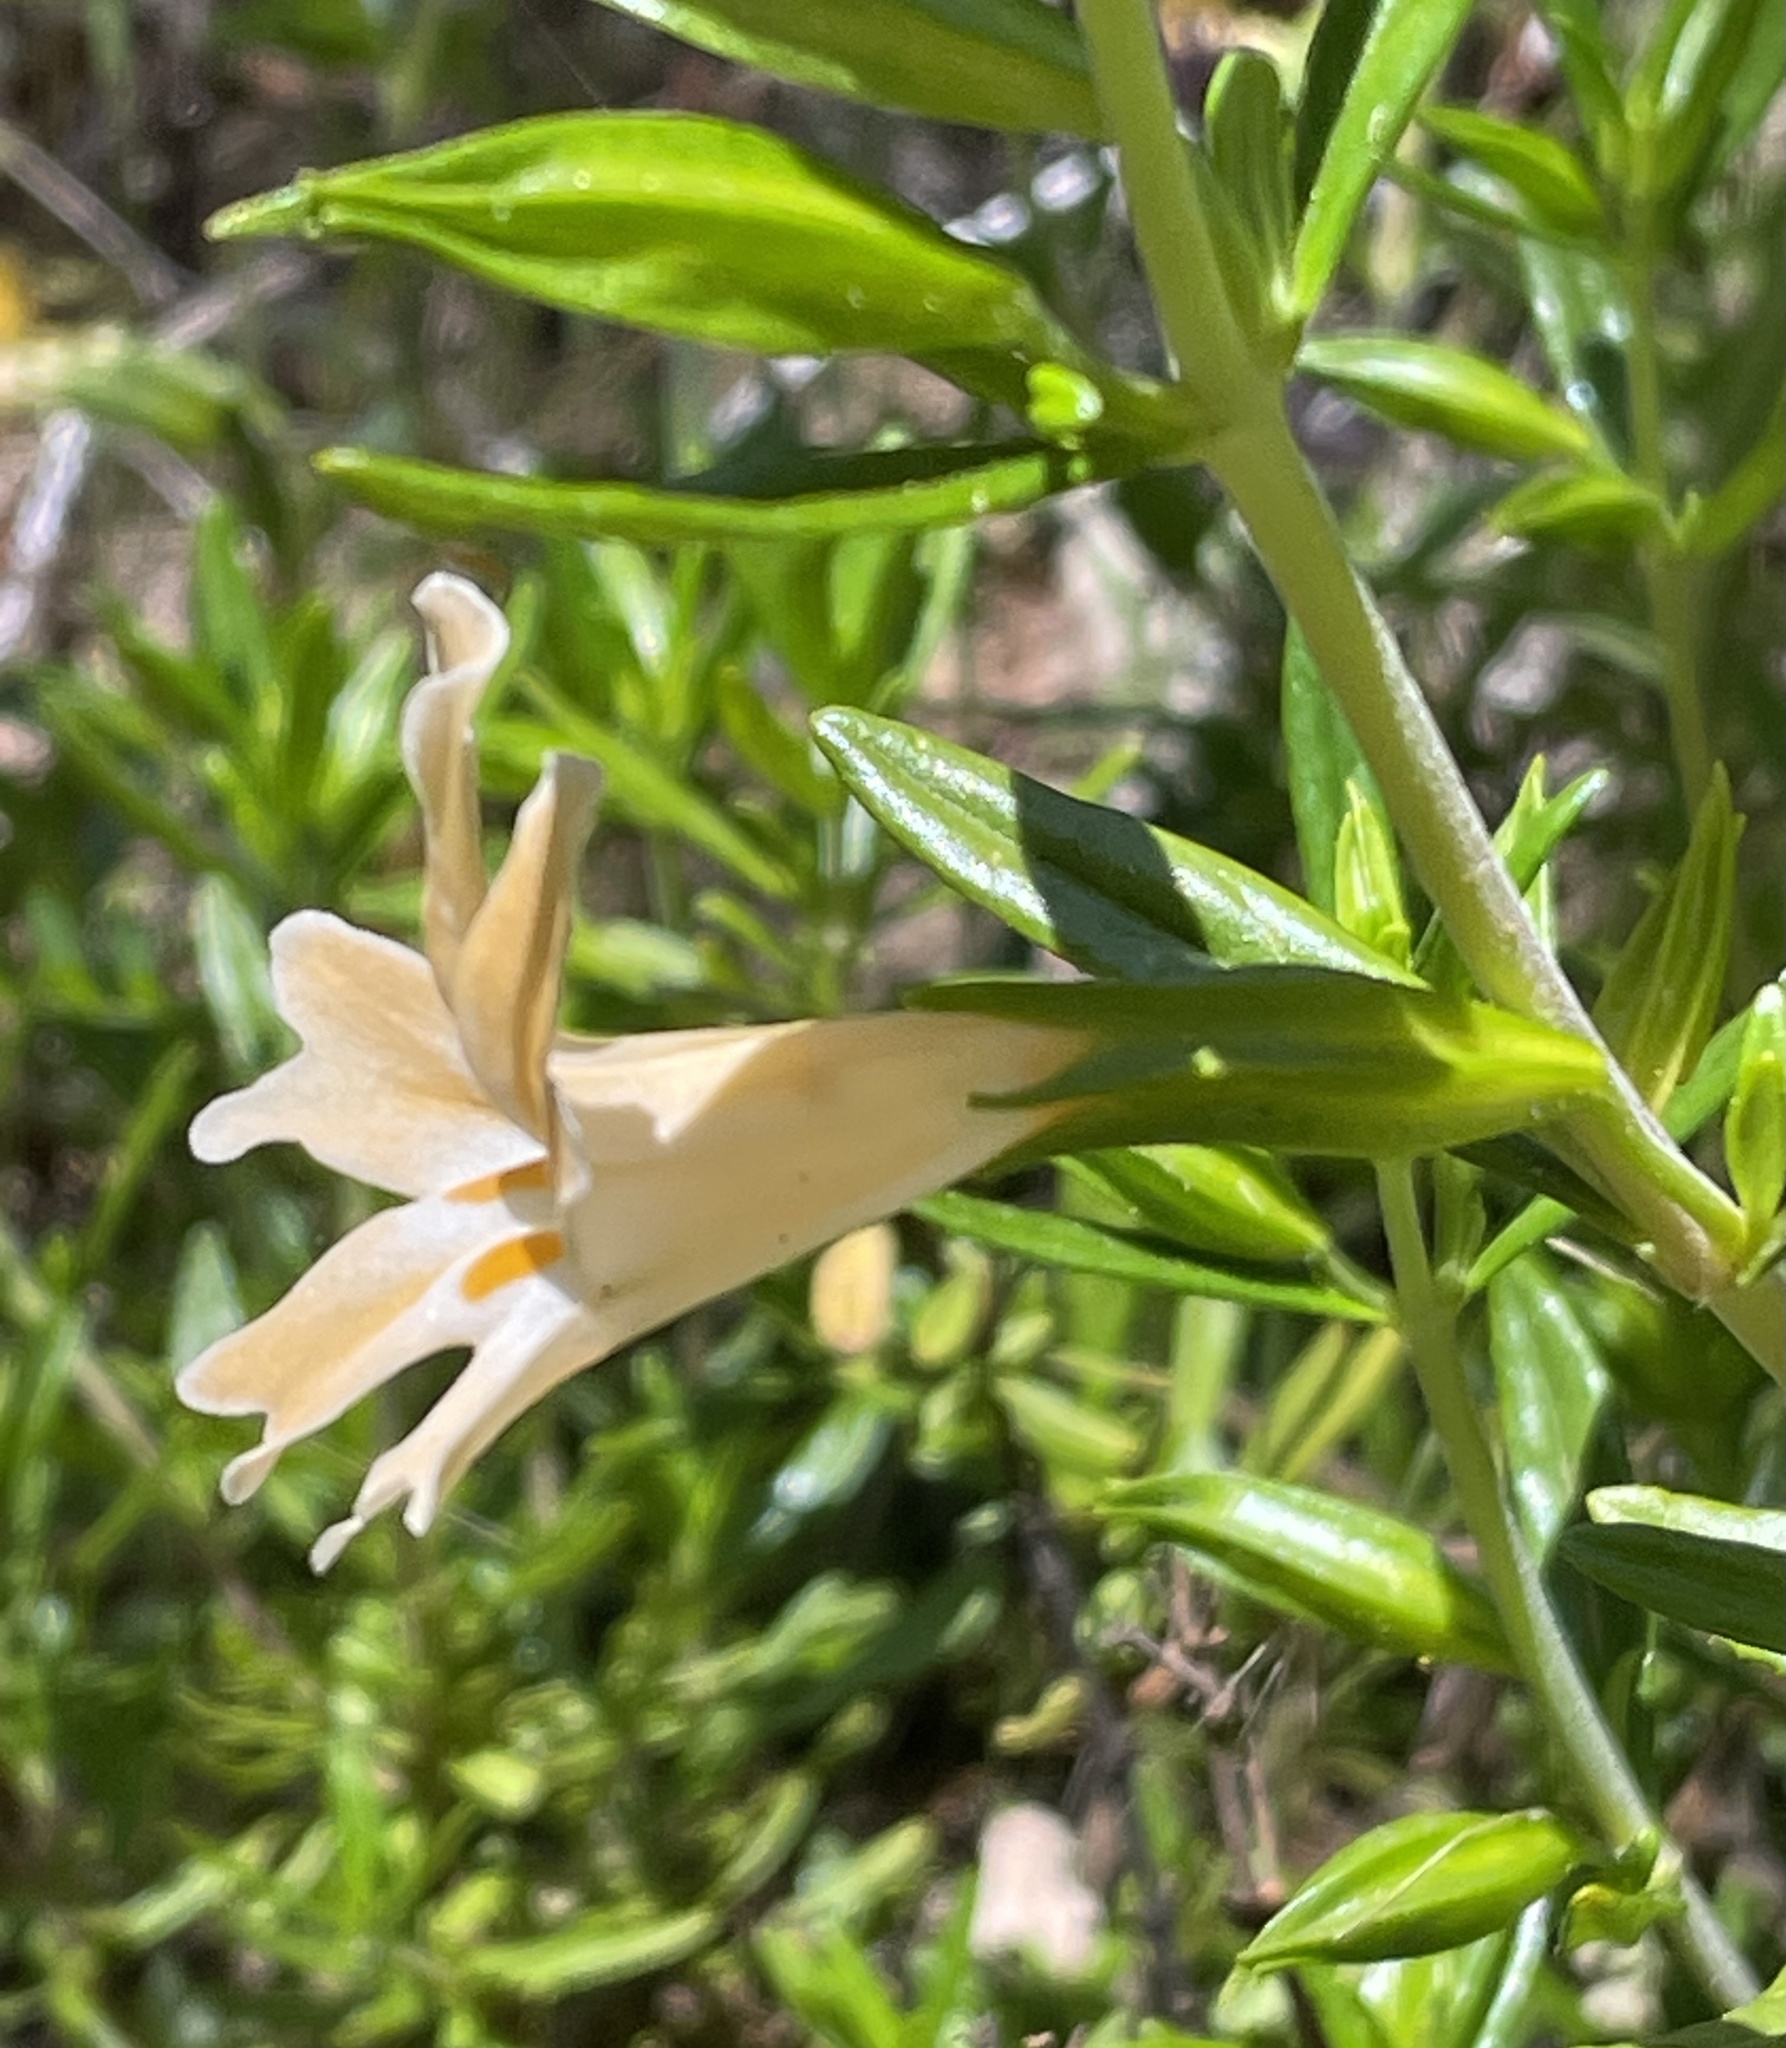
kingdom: Plantae
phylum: Tracheophyta
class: Magnoliopsida
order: Lamiales
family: Phrymaceae
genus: Diplacus
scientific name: Diplacus linearis
